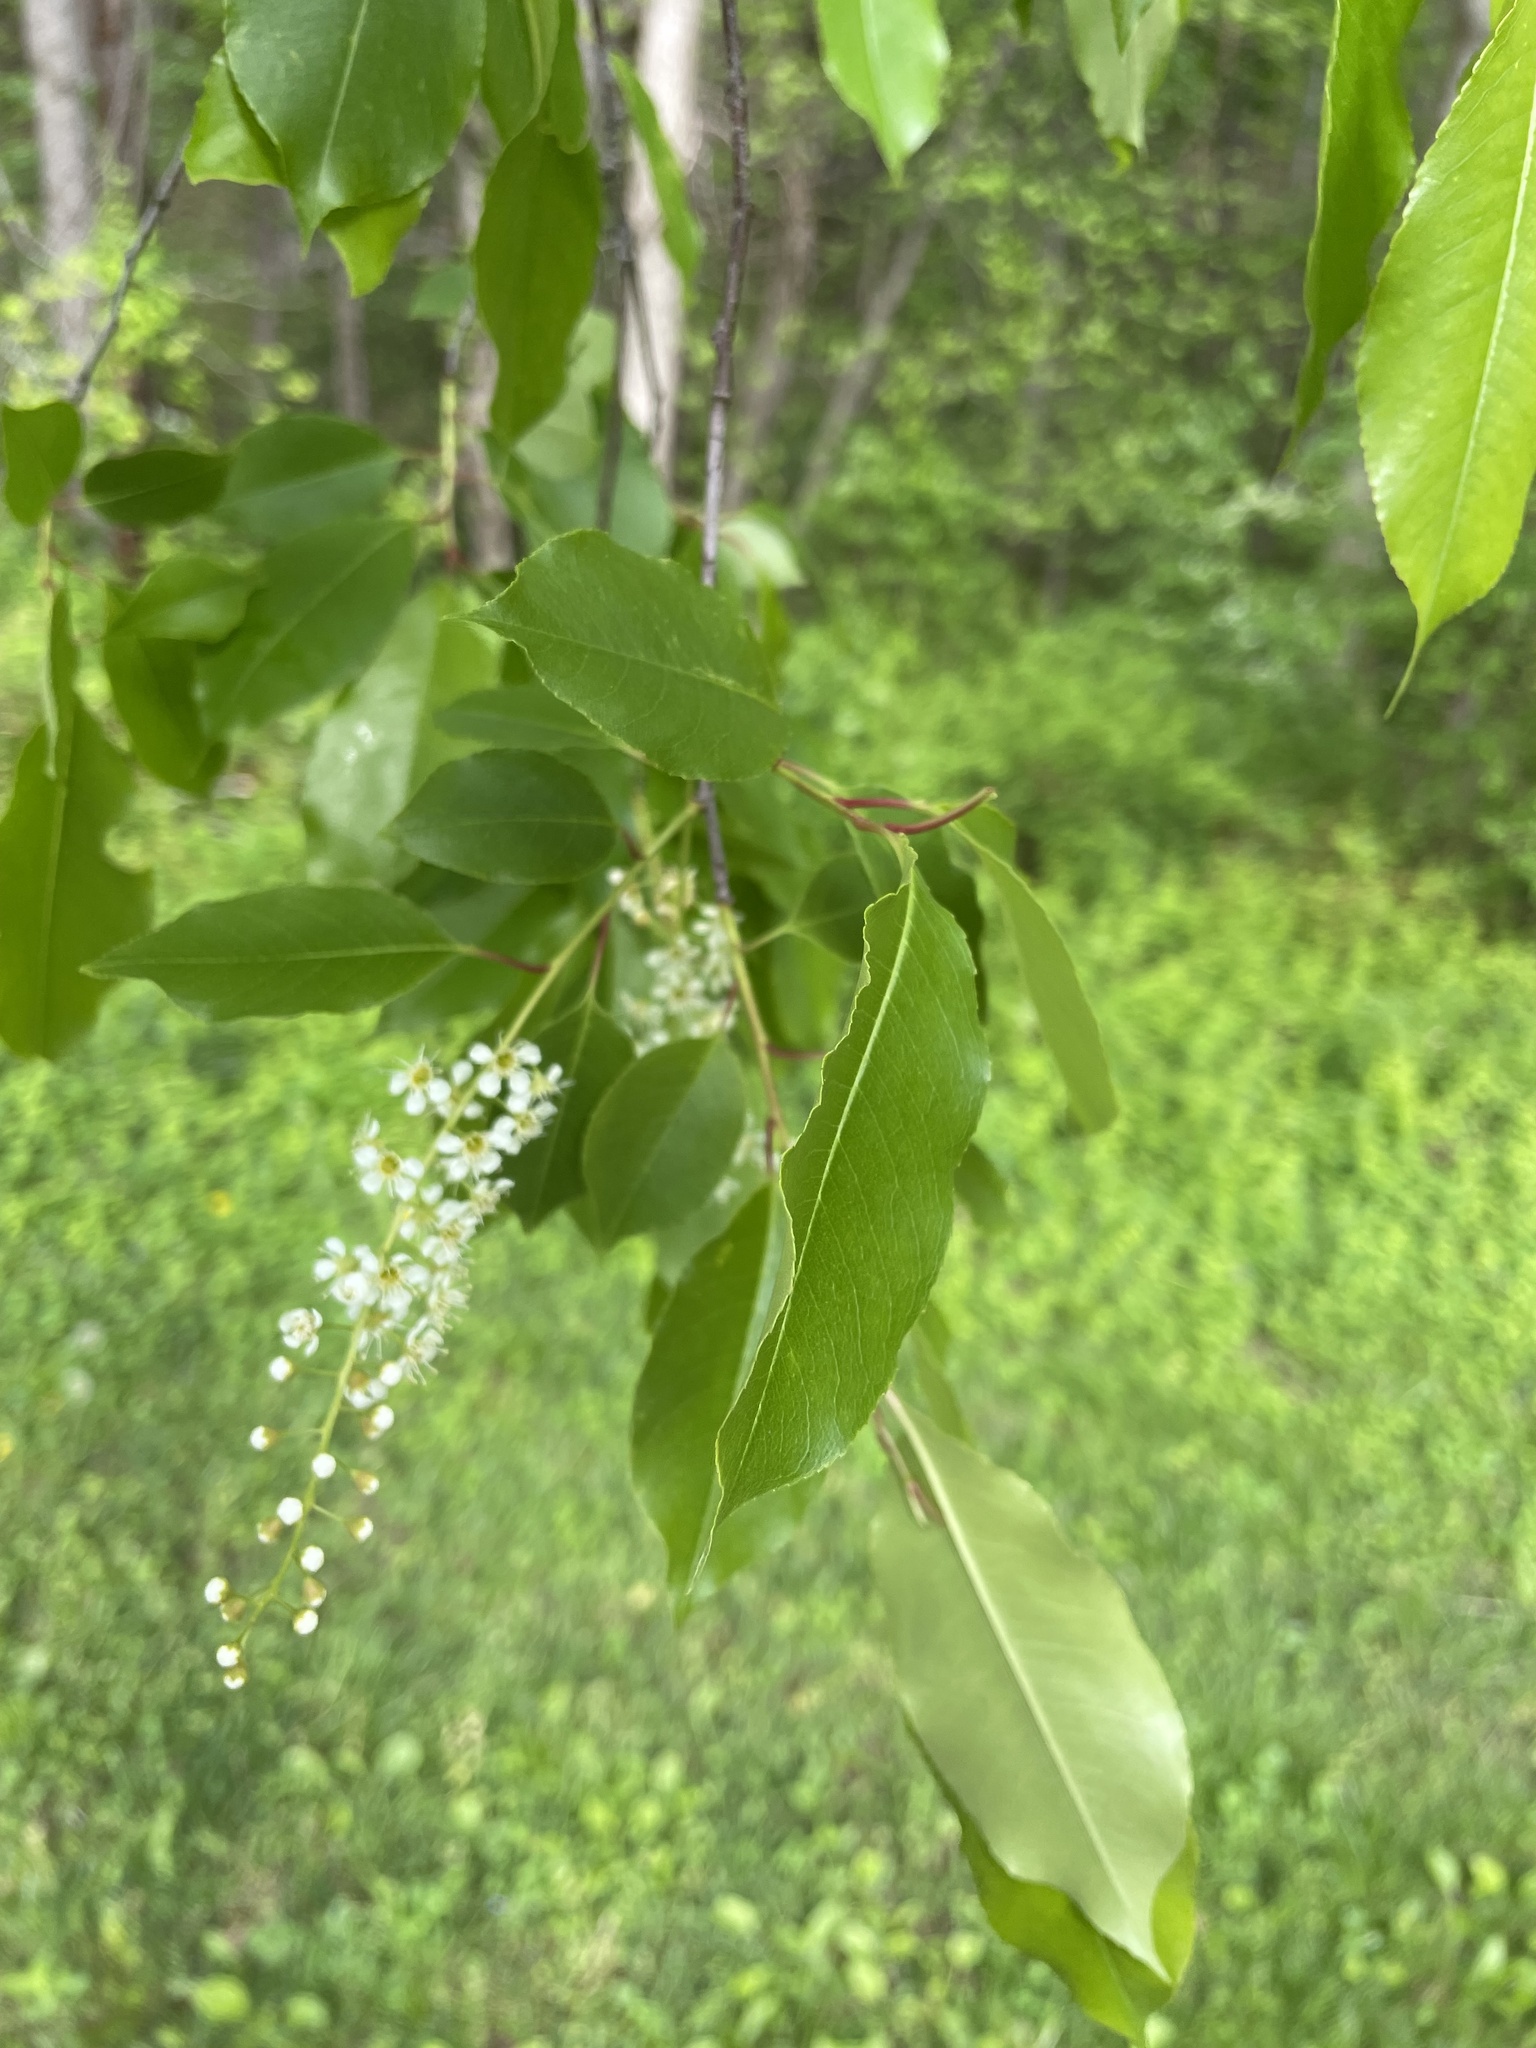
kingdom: Plantae
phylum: Tracheophyta
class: Magnoliopsida
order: Rosales
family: Rosaceae
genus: Prunus
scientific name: Prunus serotina
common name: Black cherry
